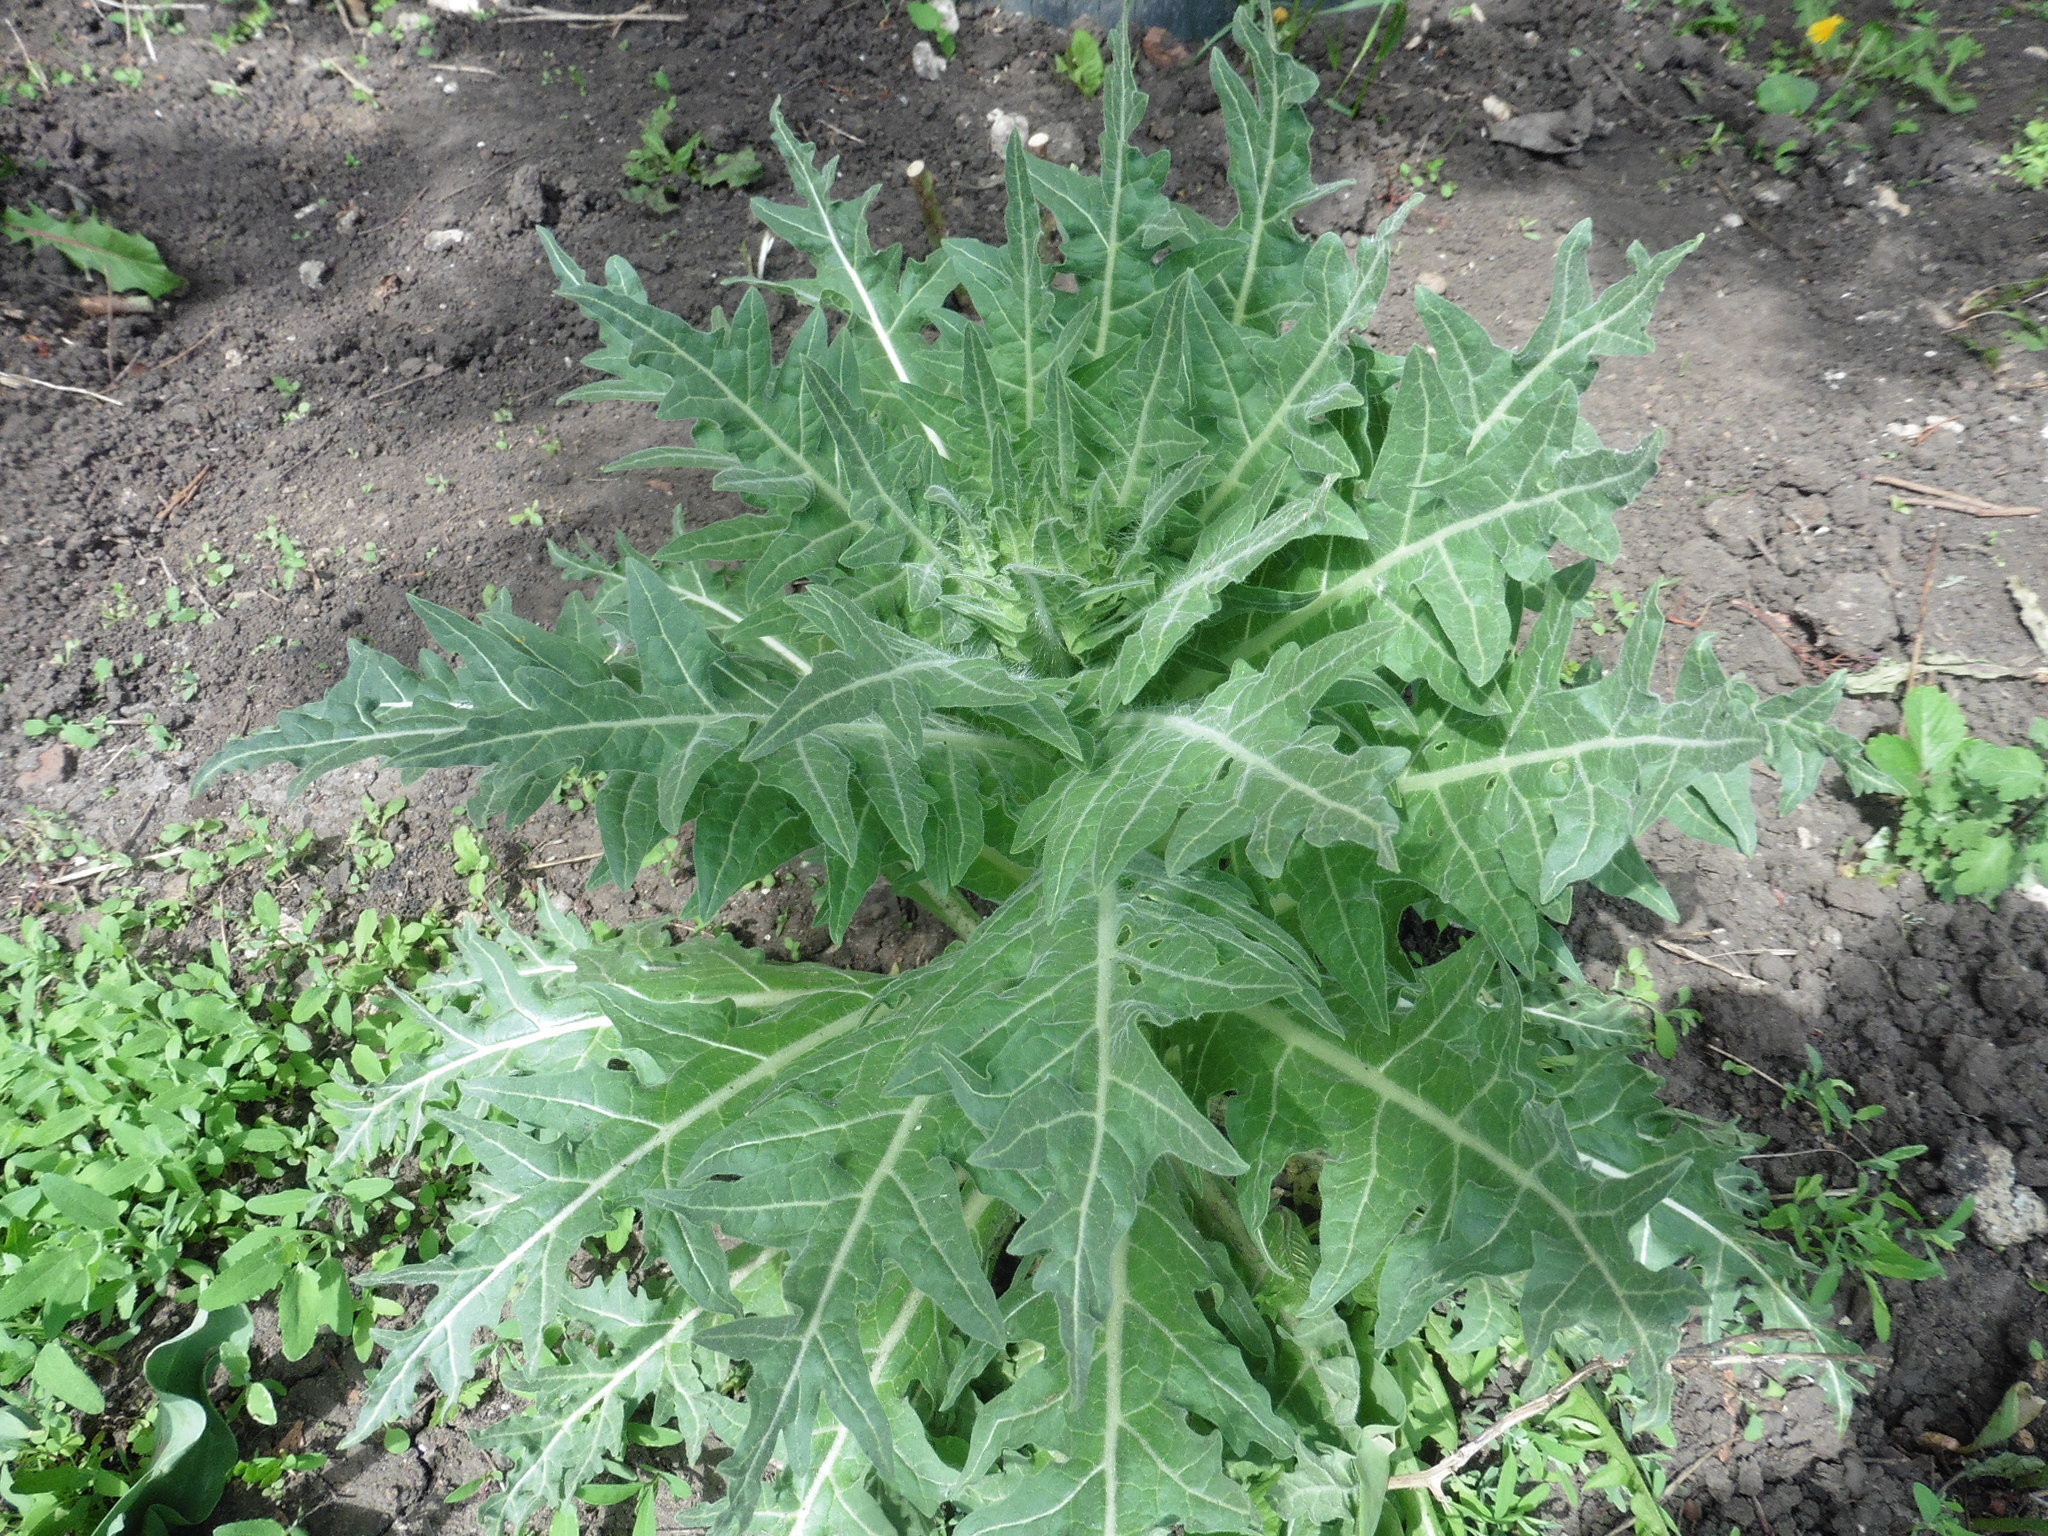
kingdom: Plantae
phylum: Tracheophyta
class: Magnoliopsida
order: Solanales
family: Solanaceae
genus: Hyoscyamus
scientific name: Hyoscyamus niger
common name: Henbane
